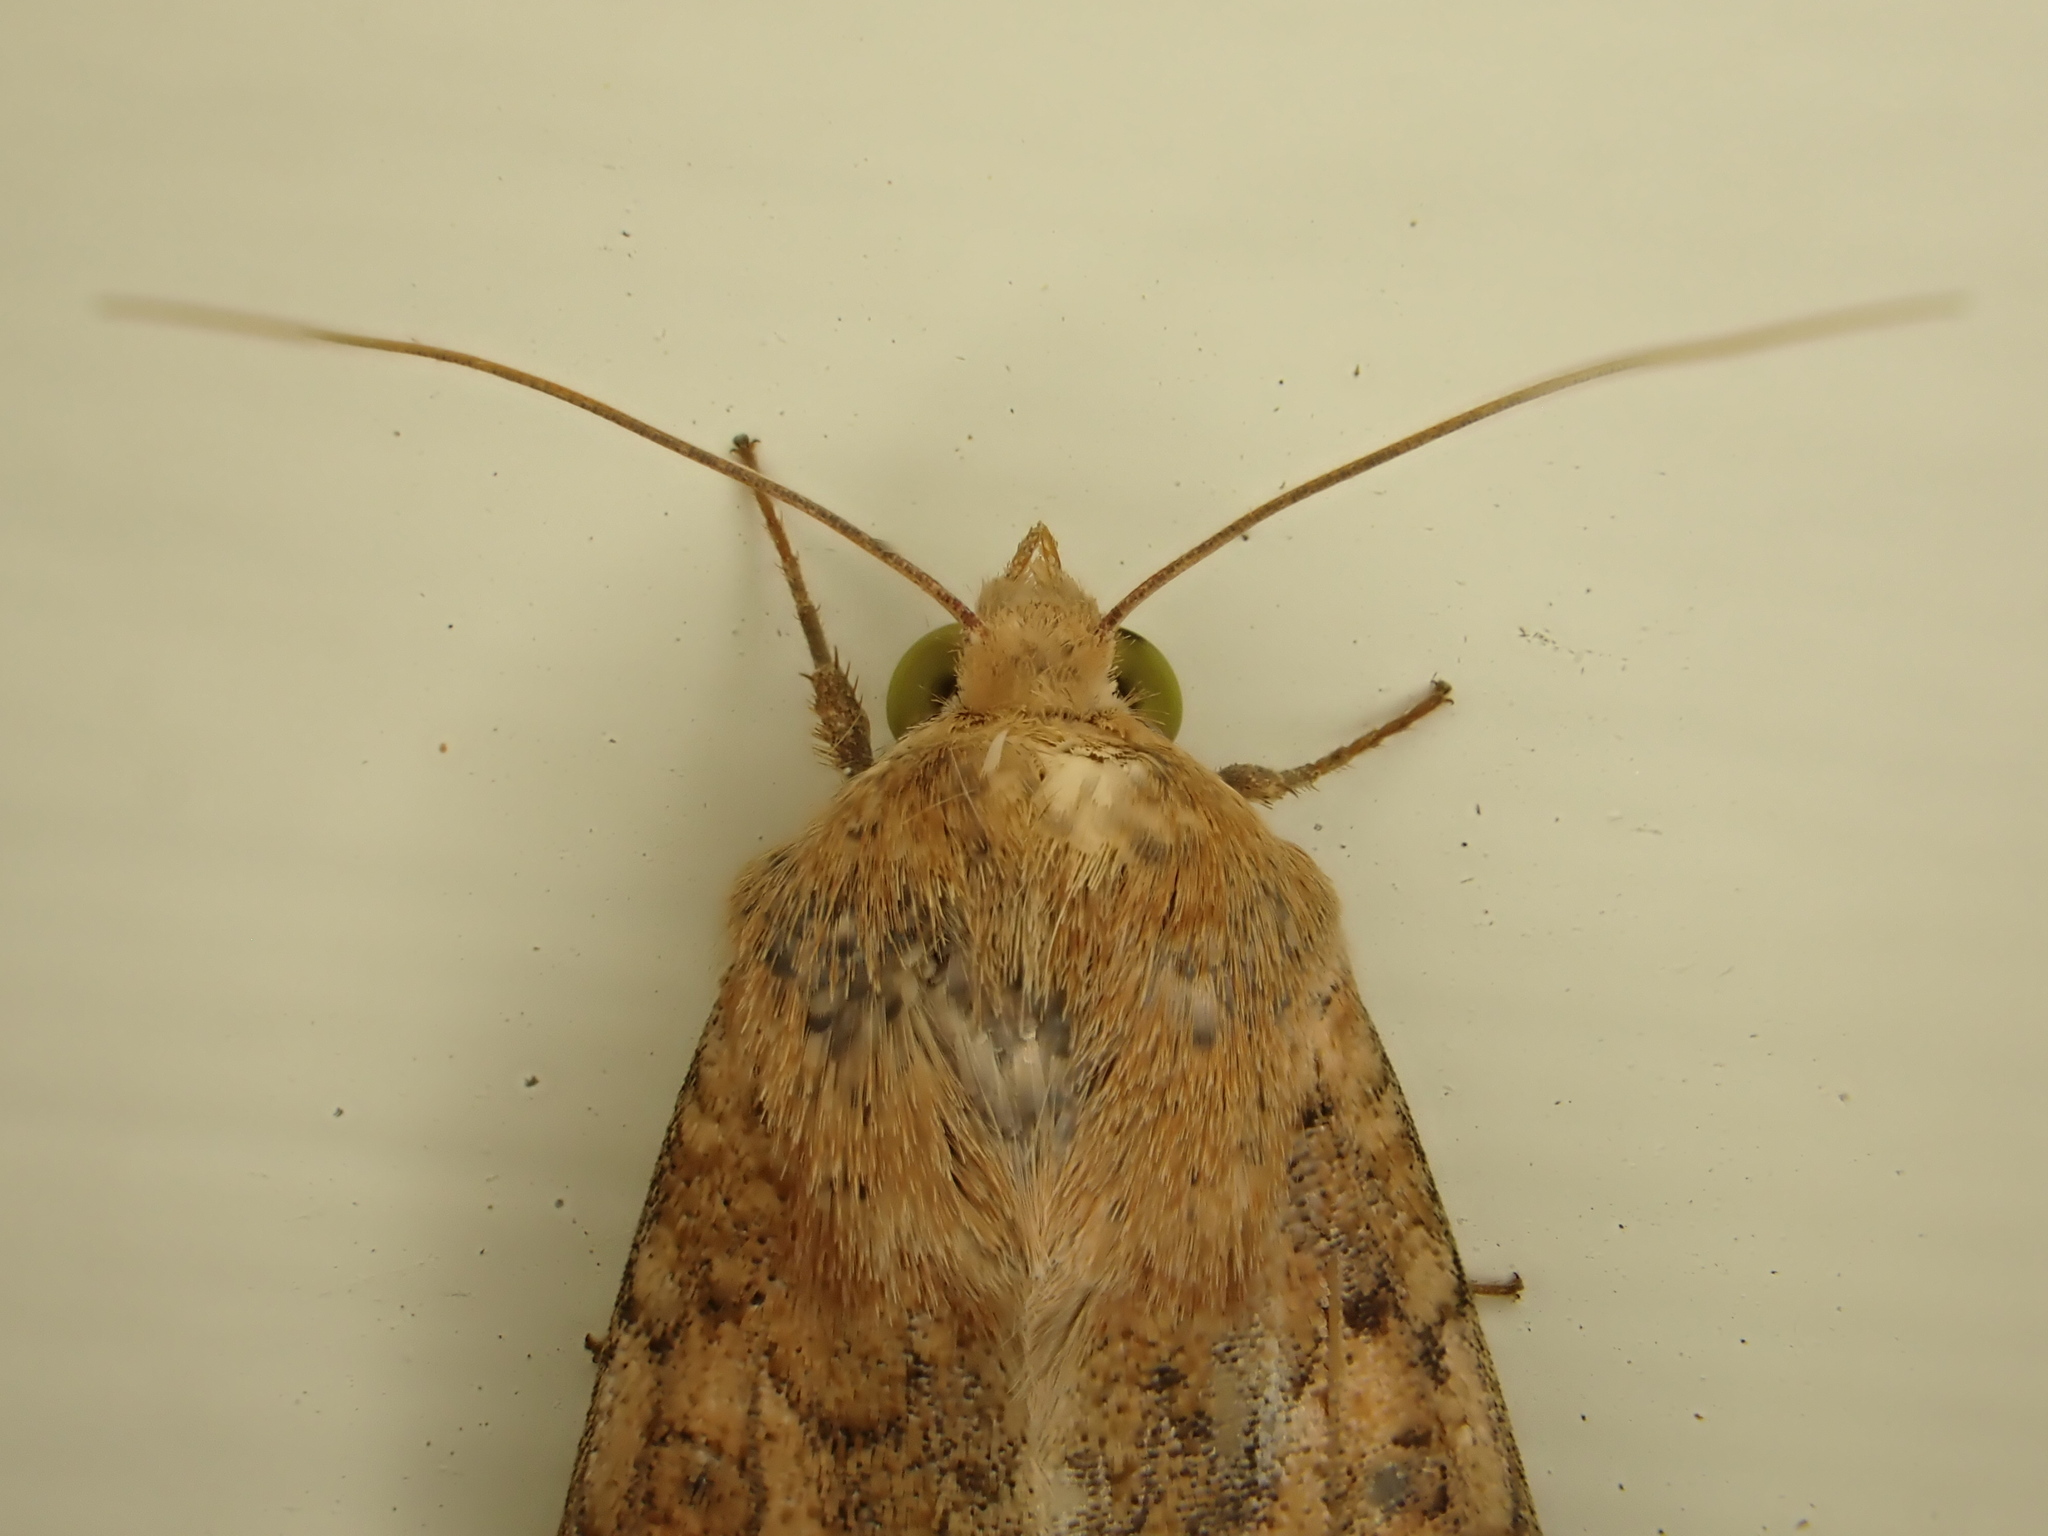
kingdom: Animalia
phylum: Arthropoda
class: Insecta
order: Lepidoptera
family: Noctuidae
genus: Helicoverpa
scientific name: Helicoverpa armigera
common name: Cotton bollworm
